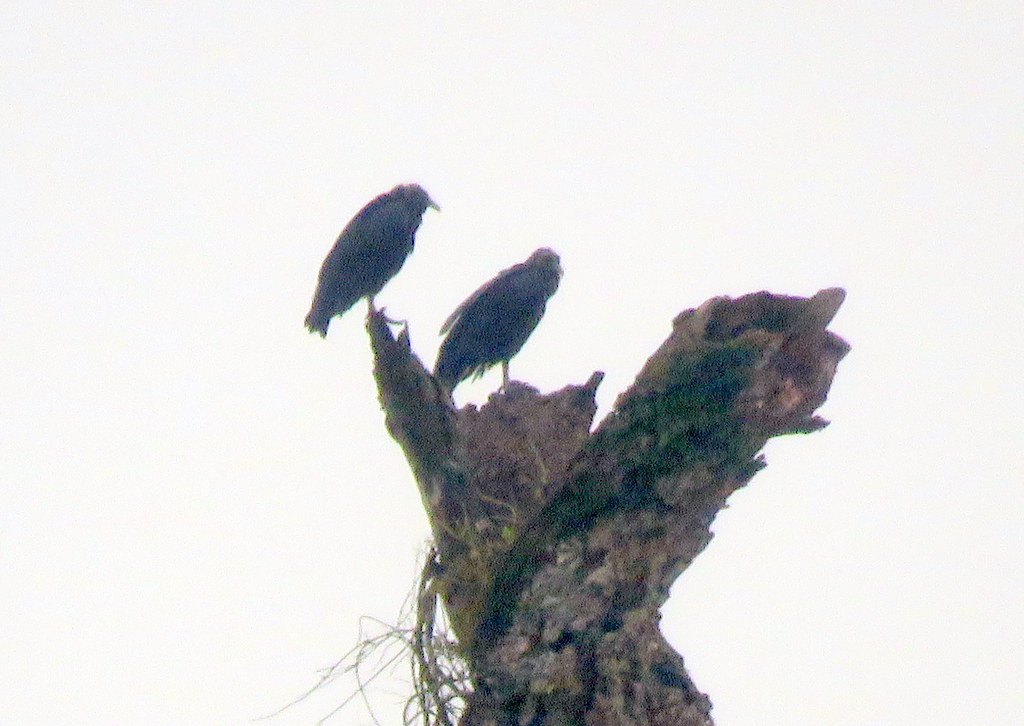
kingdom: Animalia
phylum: Chordata
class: Aves
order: Accipitriformes
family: Cathartidae
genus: Coragyps
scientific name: Coragyps atratus
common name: Black vulture
